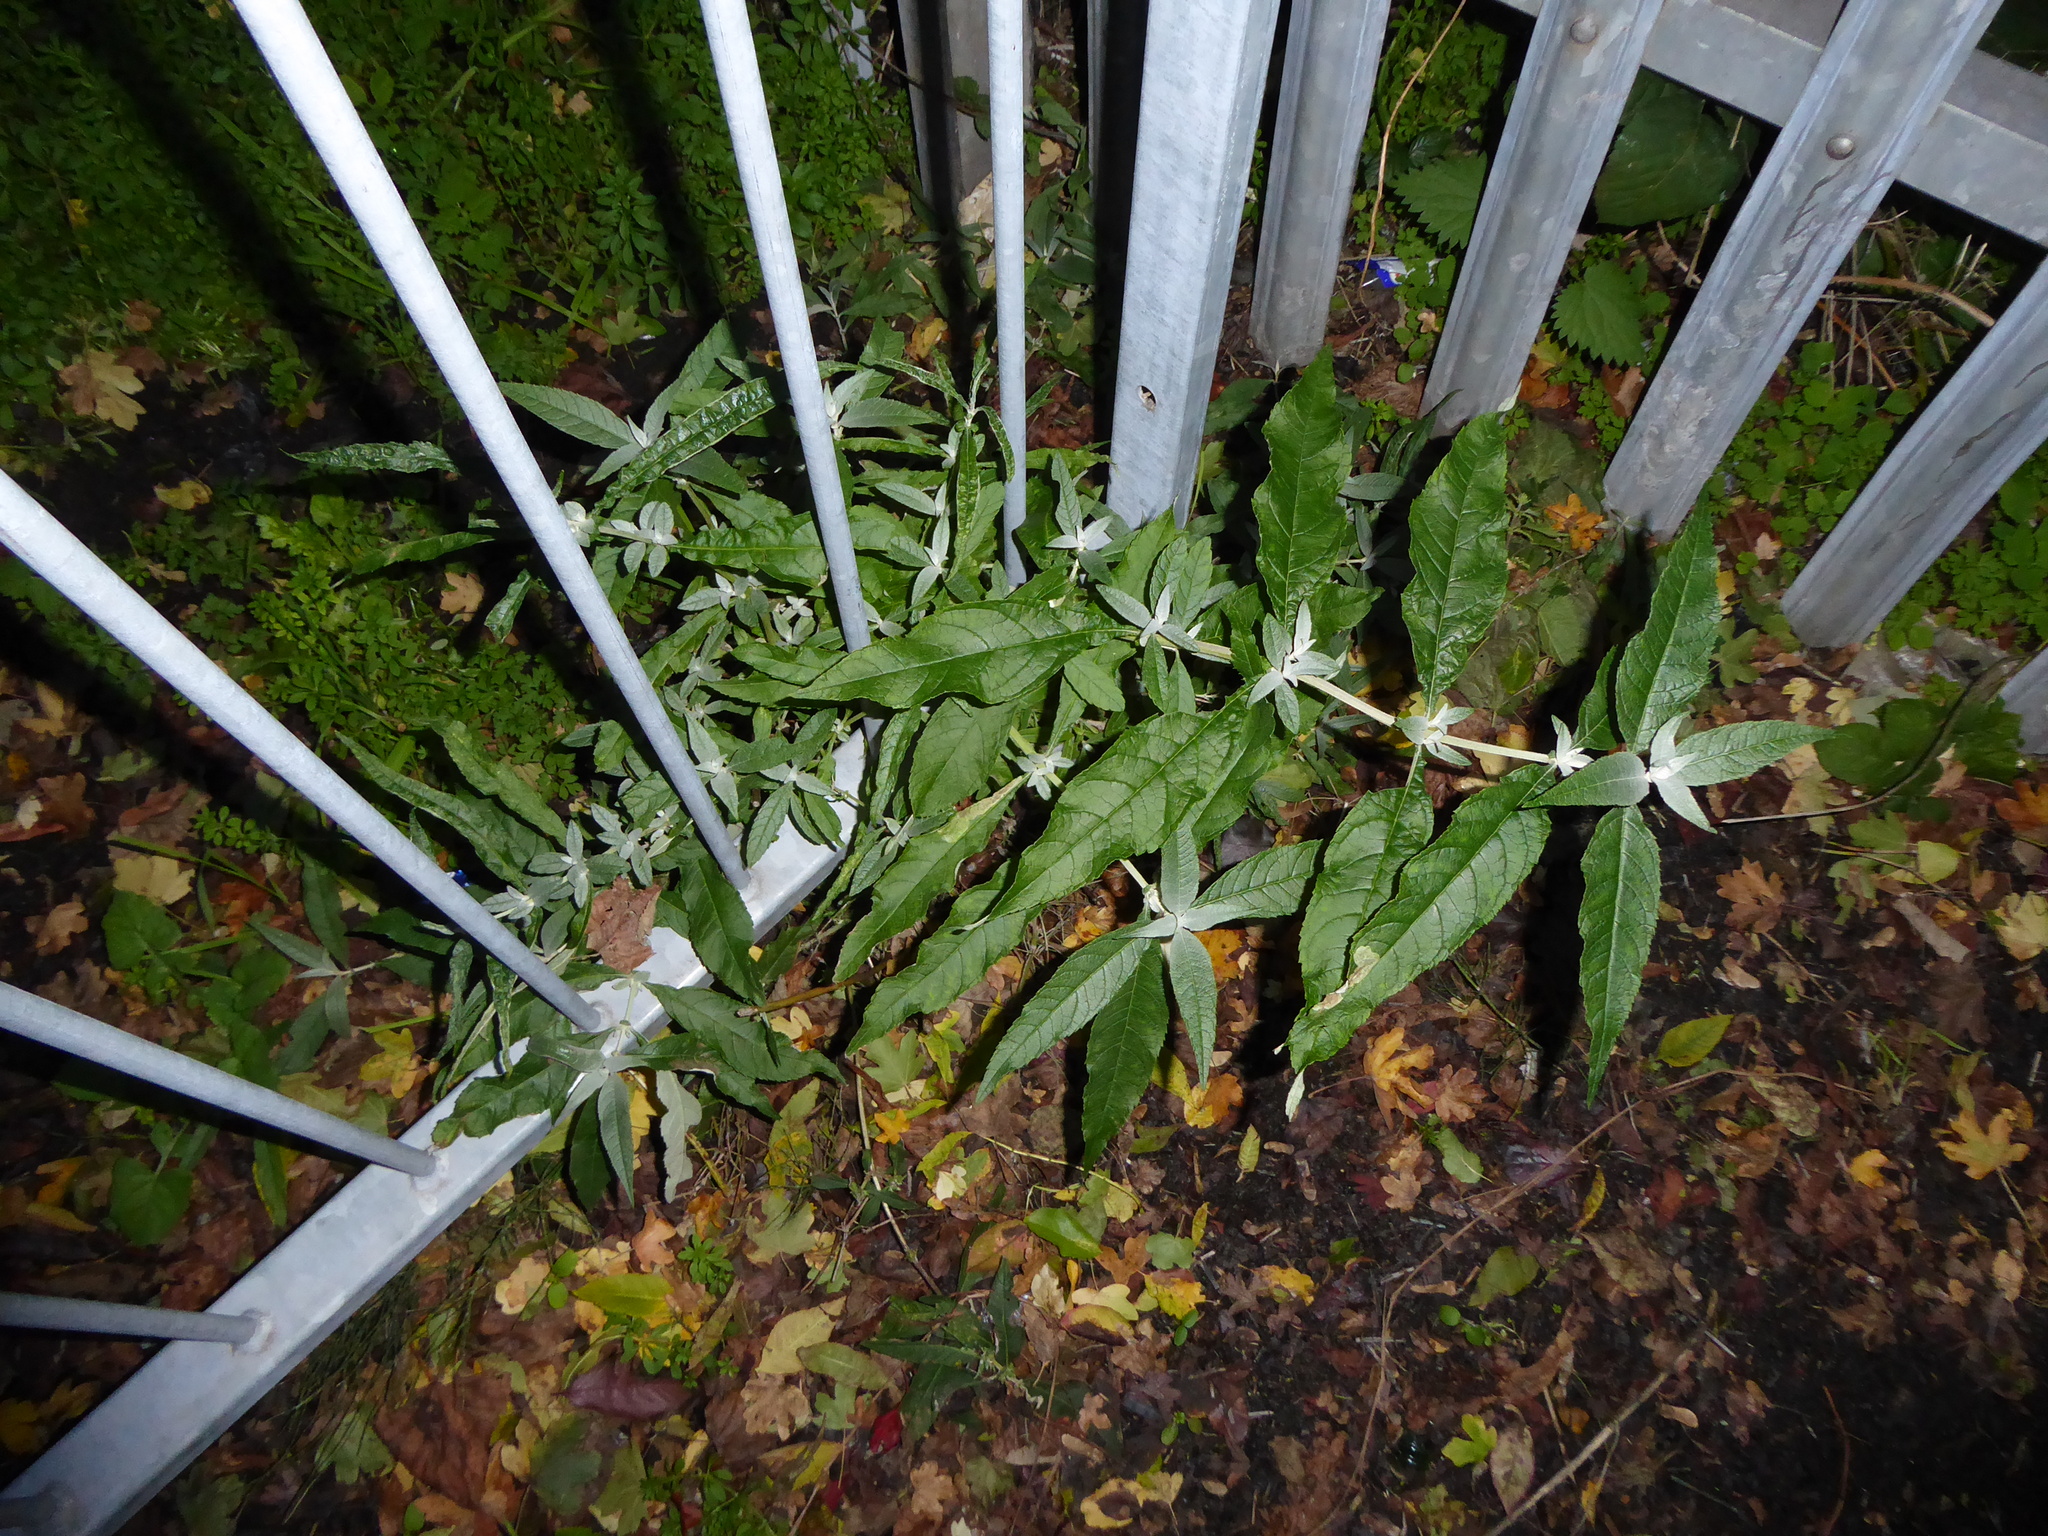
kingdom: Plantae
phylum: Tracheophyta
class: Magnoliopsida
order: Lamiales
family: Scrophulariaceae
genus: Buddleja
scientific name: Buddleja davidii
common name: Butterfly-bush
